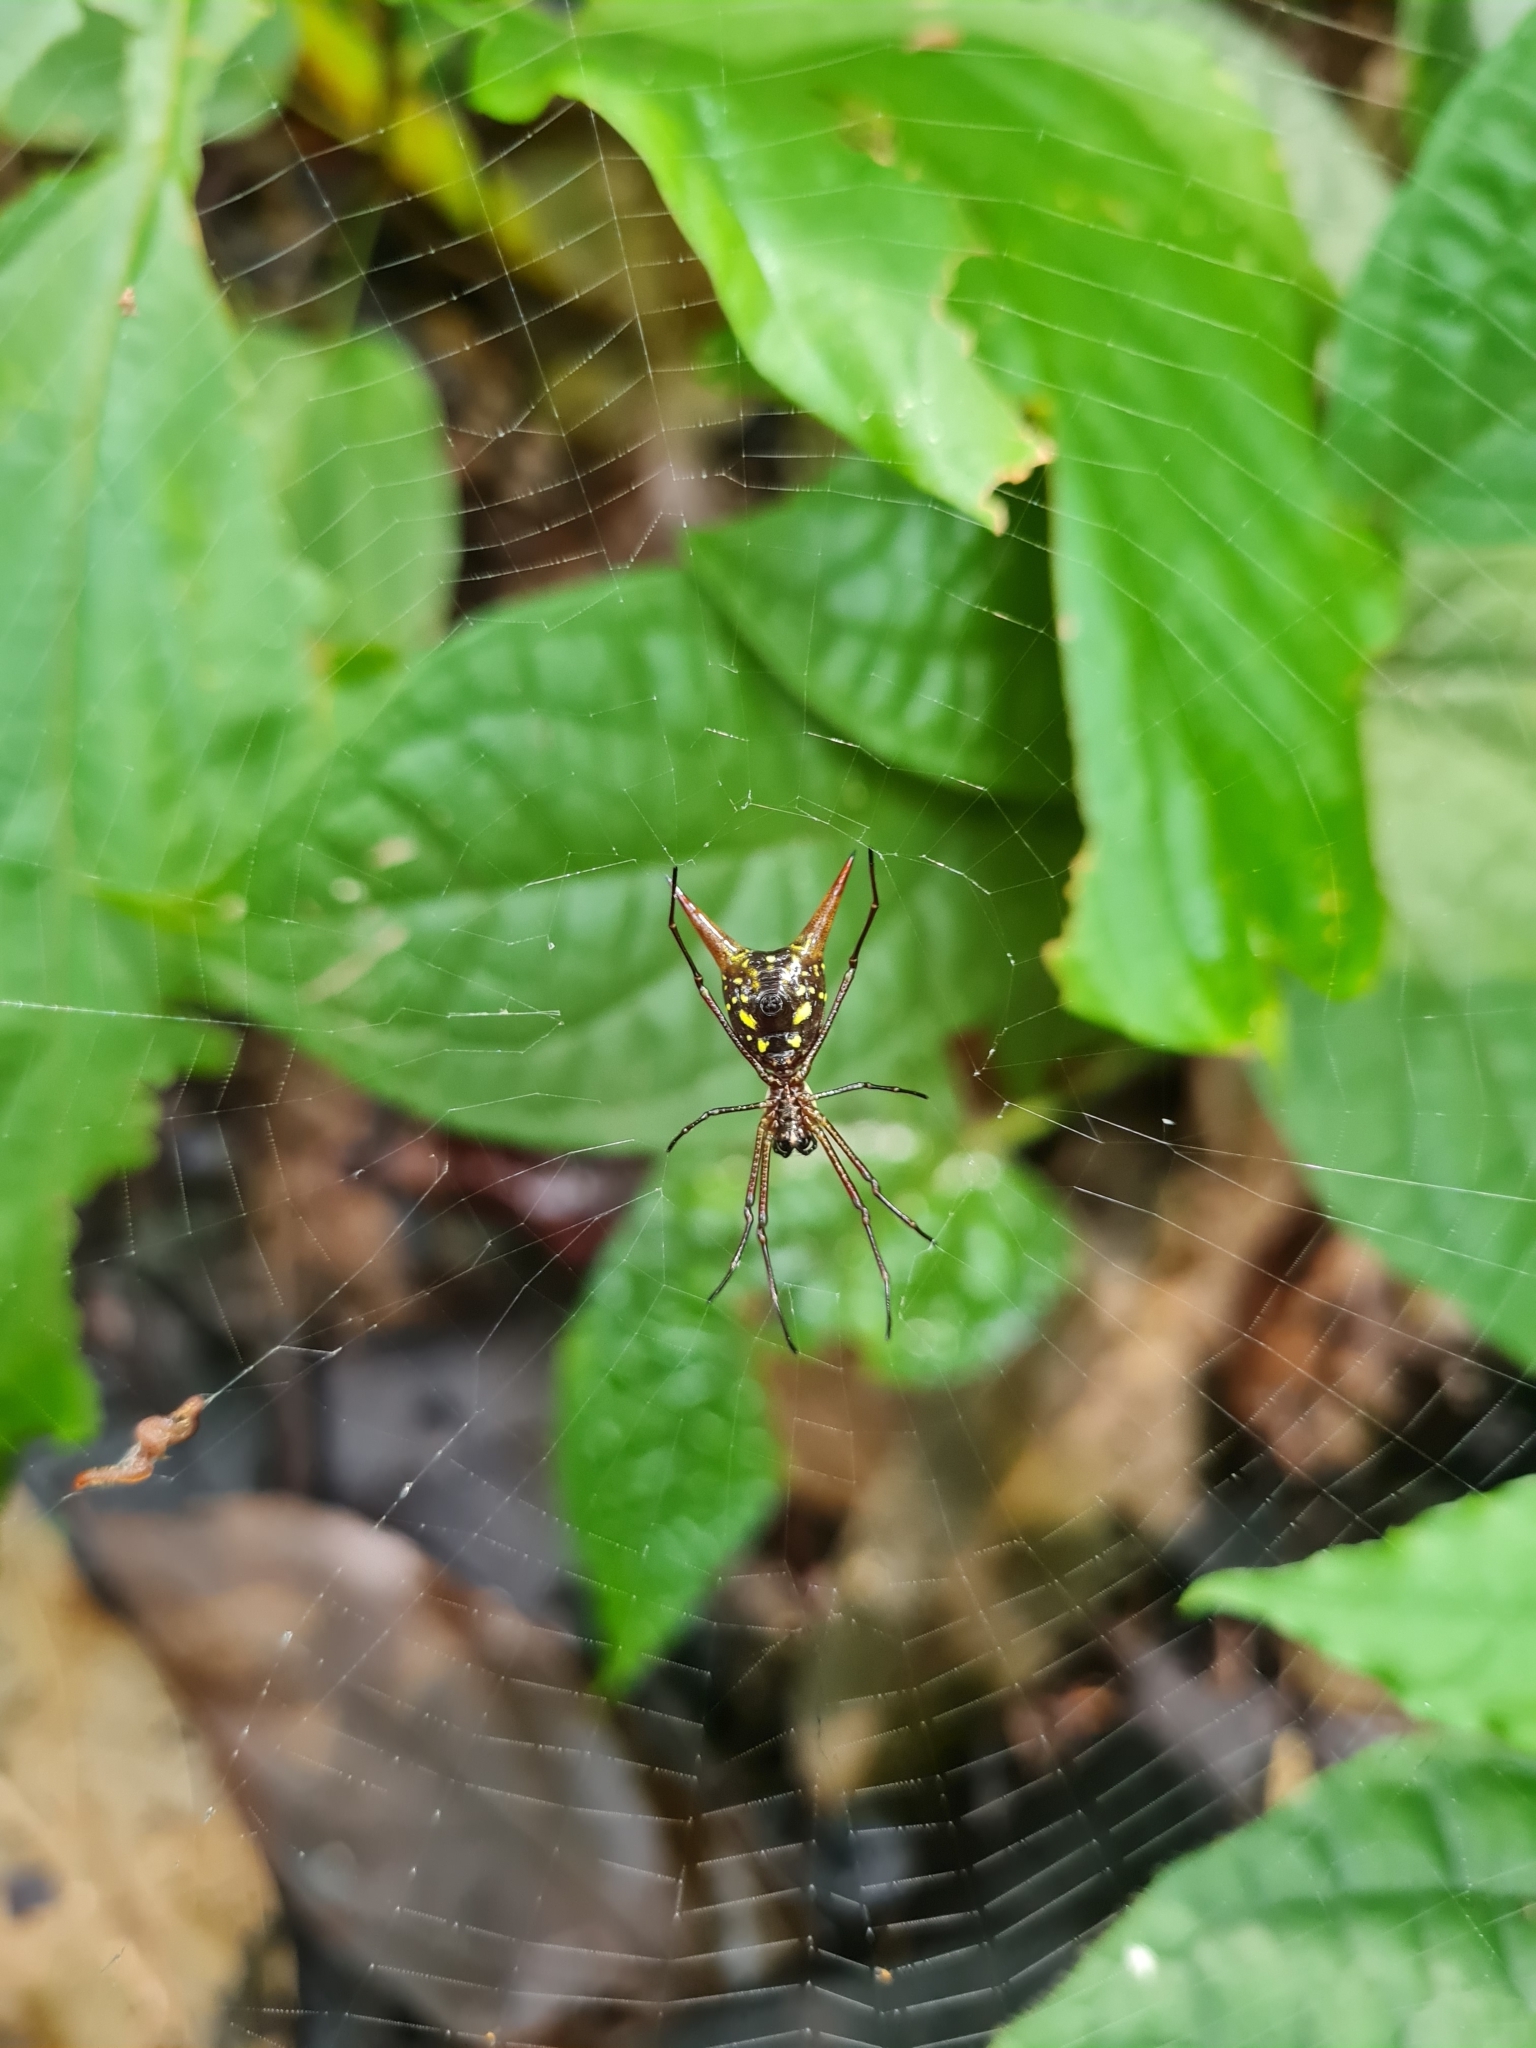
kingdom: Animalia
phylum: Arthropoda
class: Arachnida
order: Araneae
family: Araneidae
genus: Micrathena
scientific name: Micrathena donaldi
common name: Orb weavers
